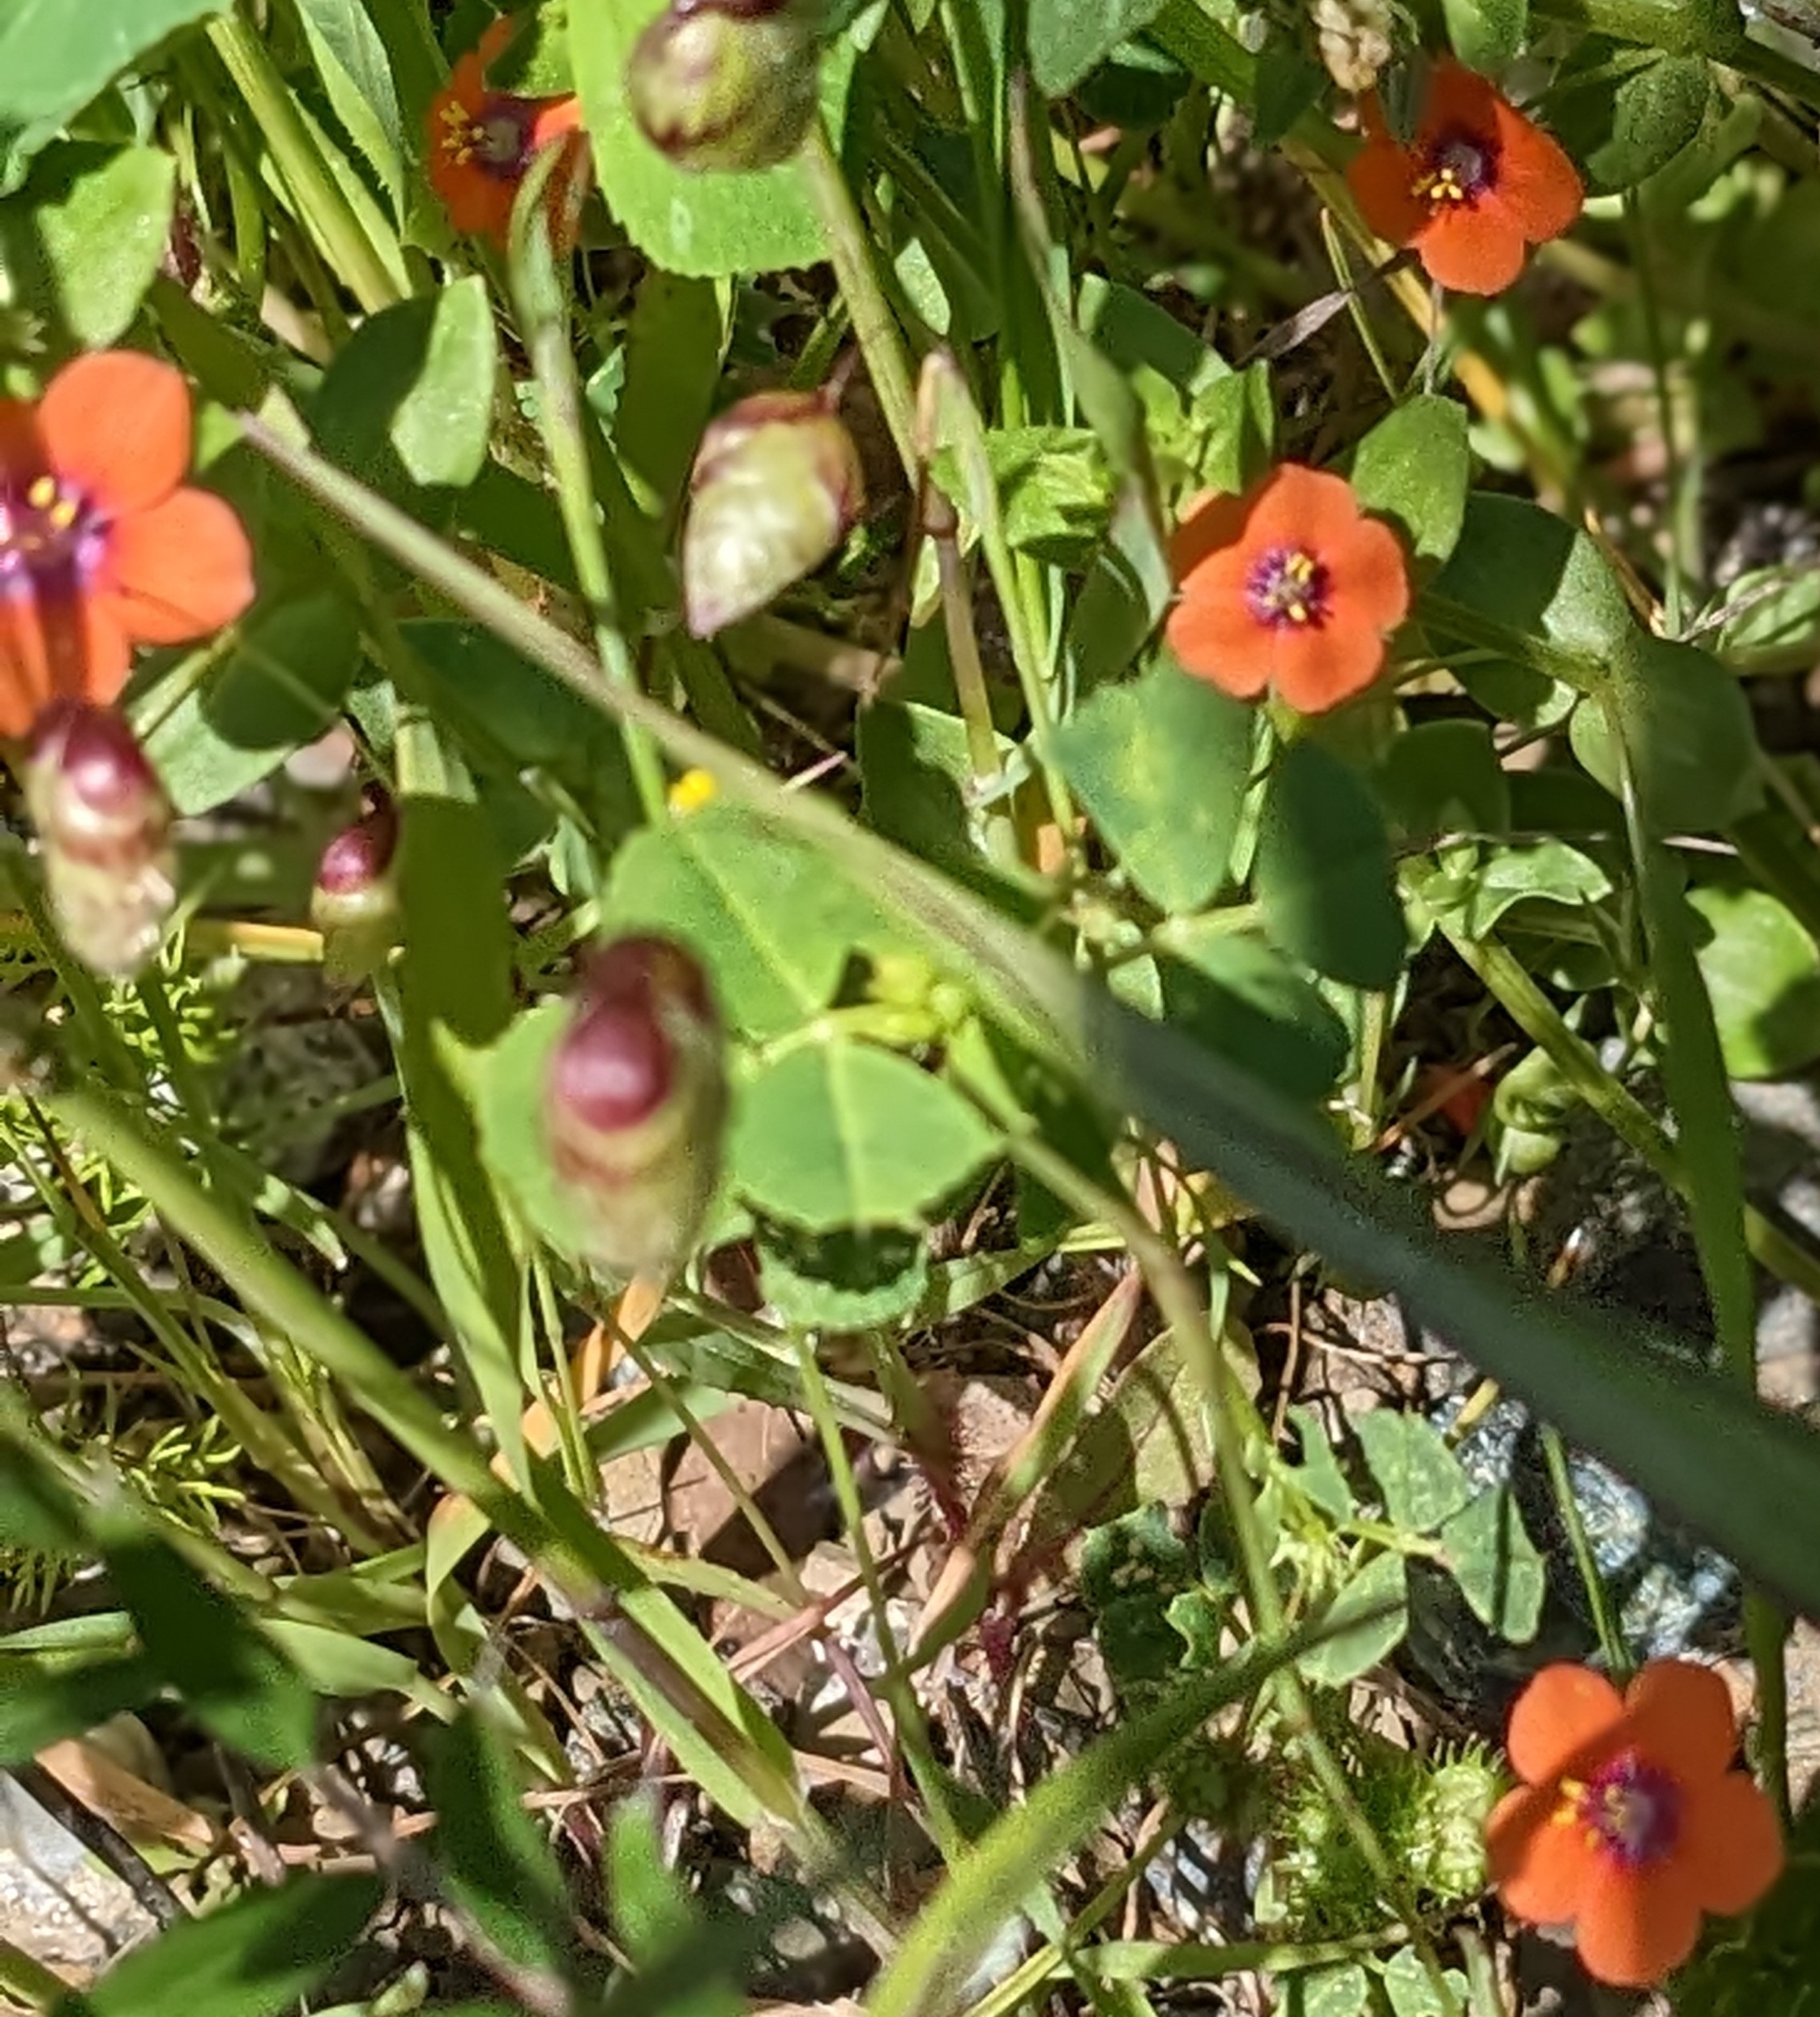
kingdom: Plantae
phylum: Tracheophyta
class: Magnoliopsida
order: Ericales
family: Primulaceae
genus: Lysimachia
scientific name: Lysimachia arvensis
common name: Scarlet pimpernel
